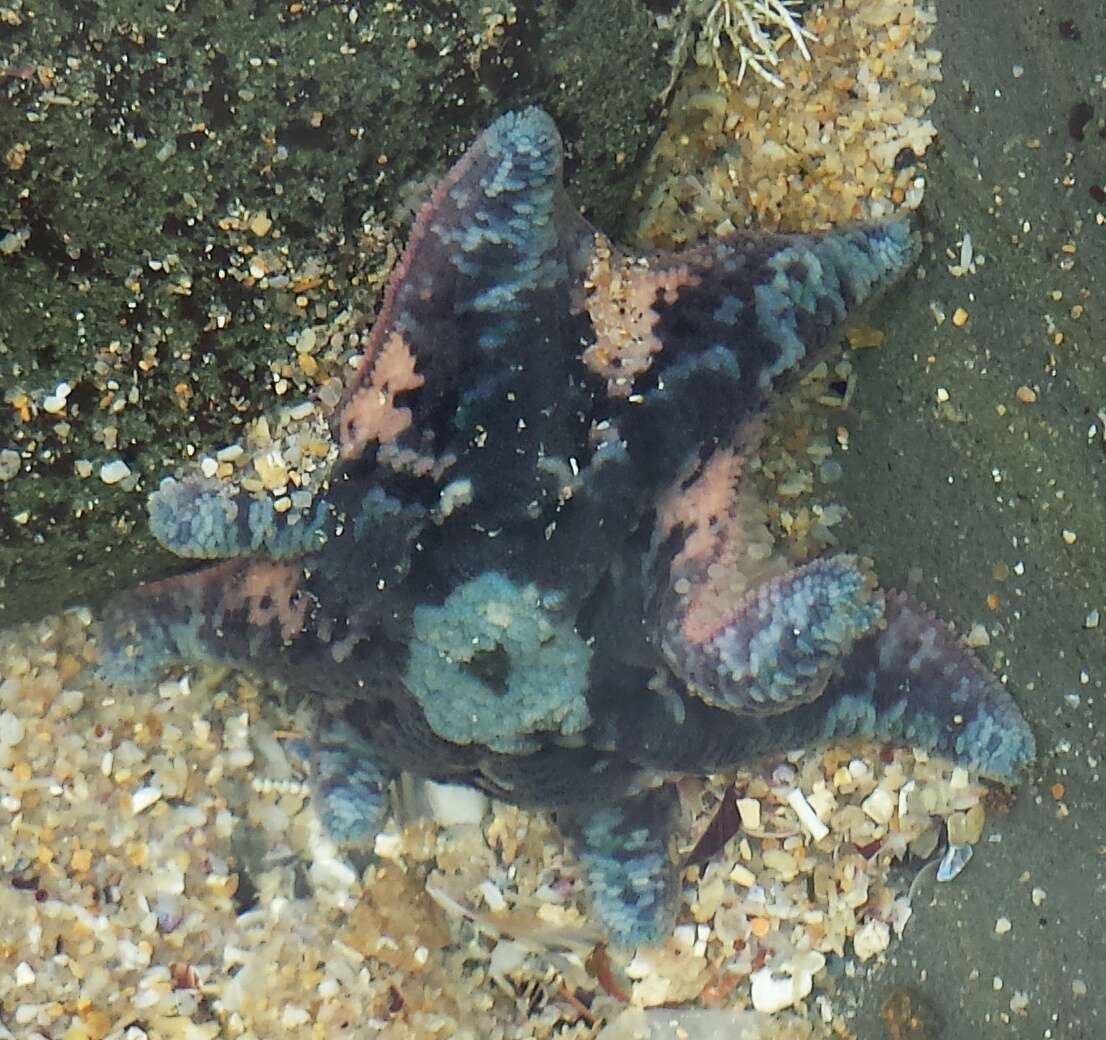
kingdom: Animalia
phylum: Echinodermata
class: Asteroidea
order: Valvatida
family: Asterinidae
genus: Meridiastra
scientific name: Meridiastra calcar
